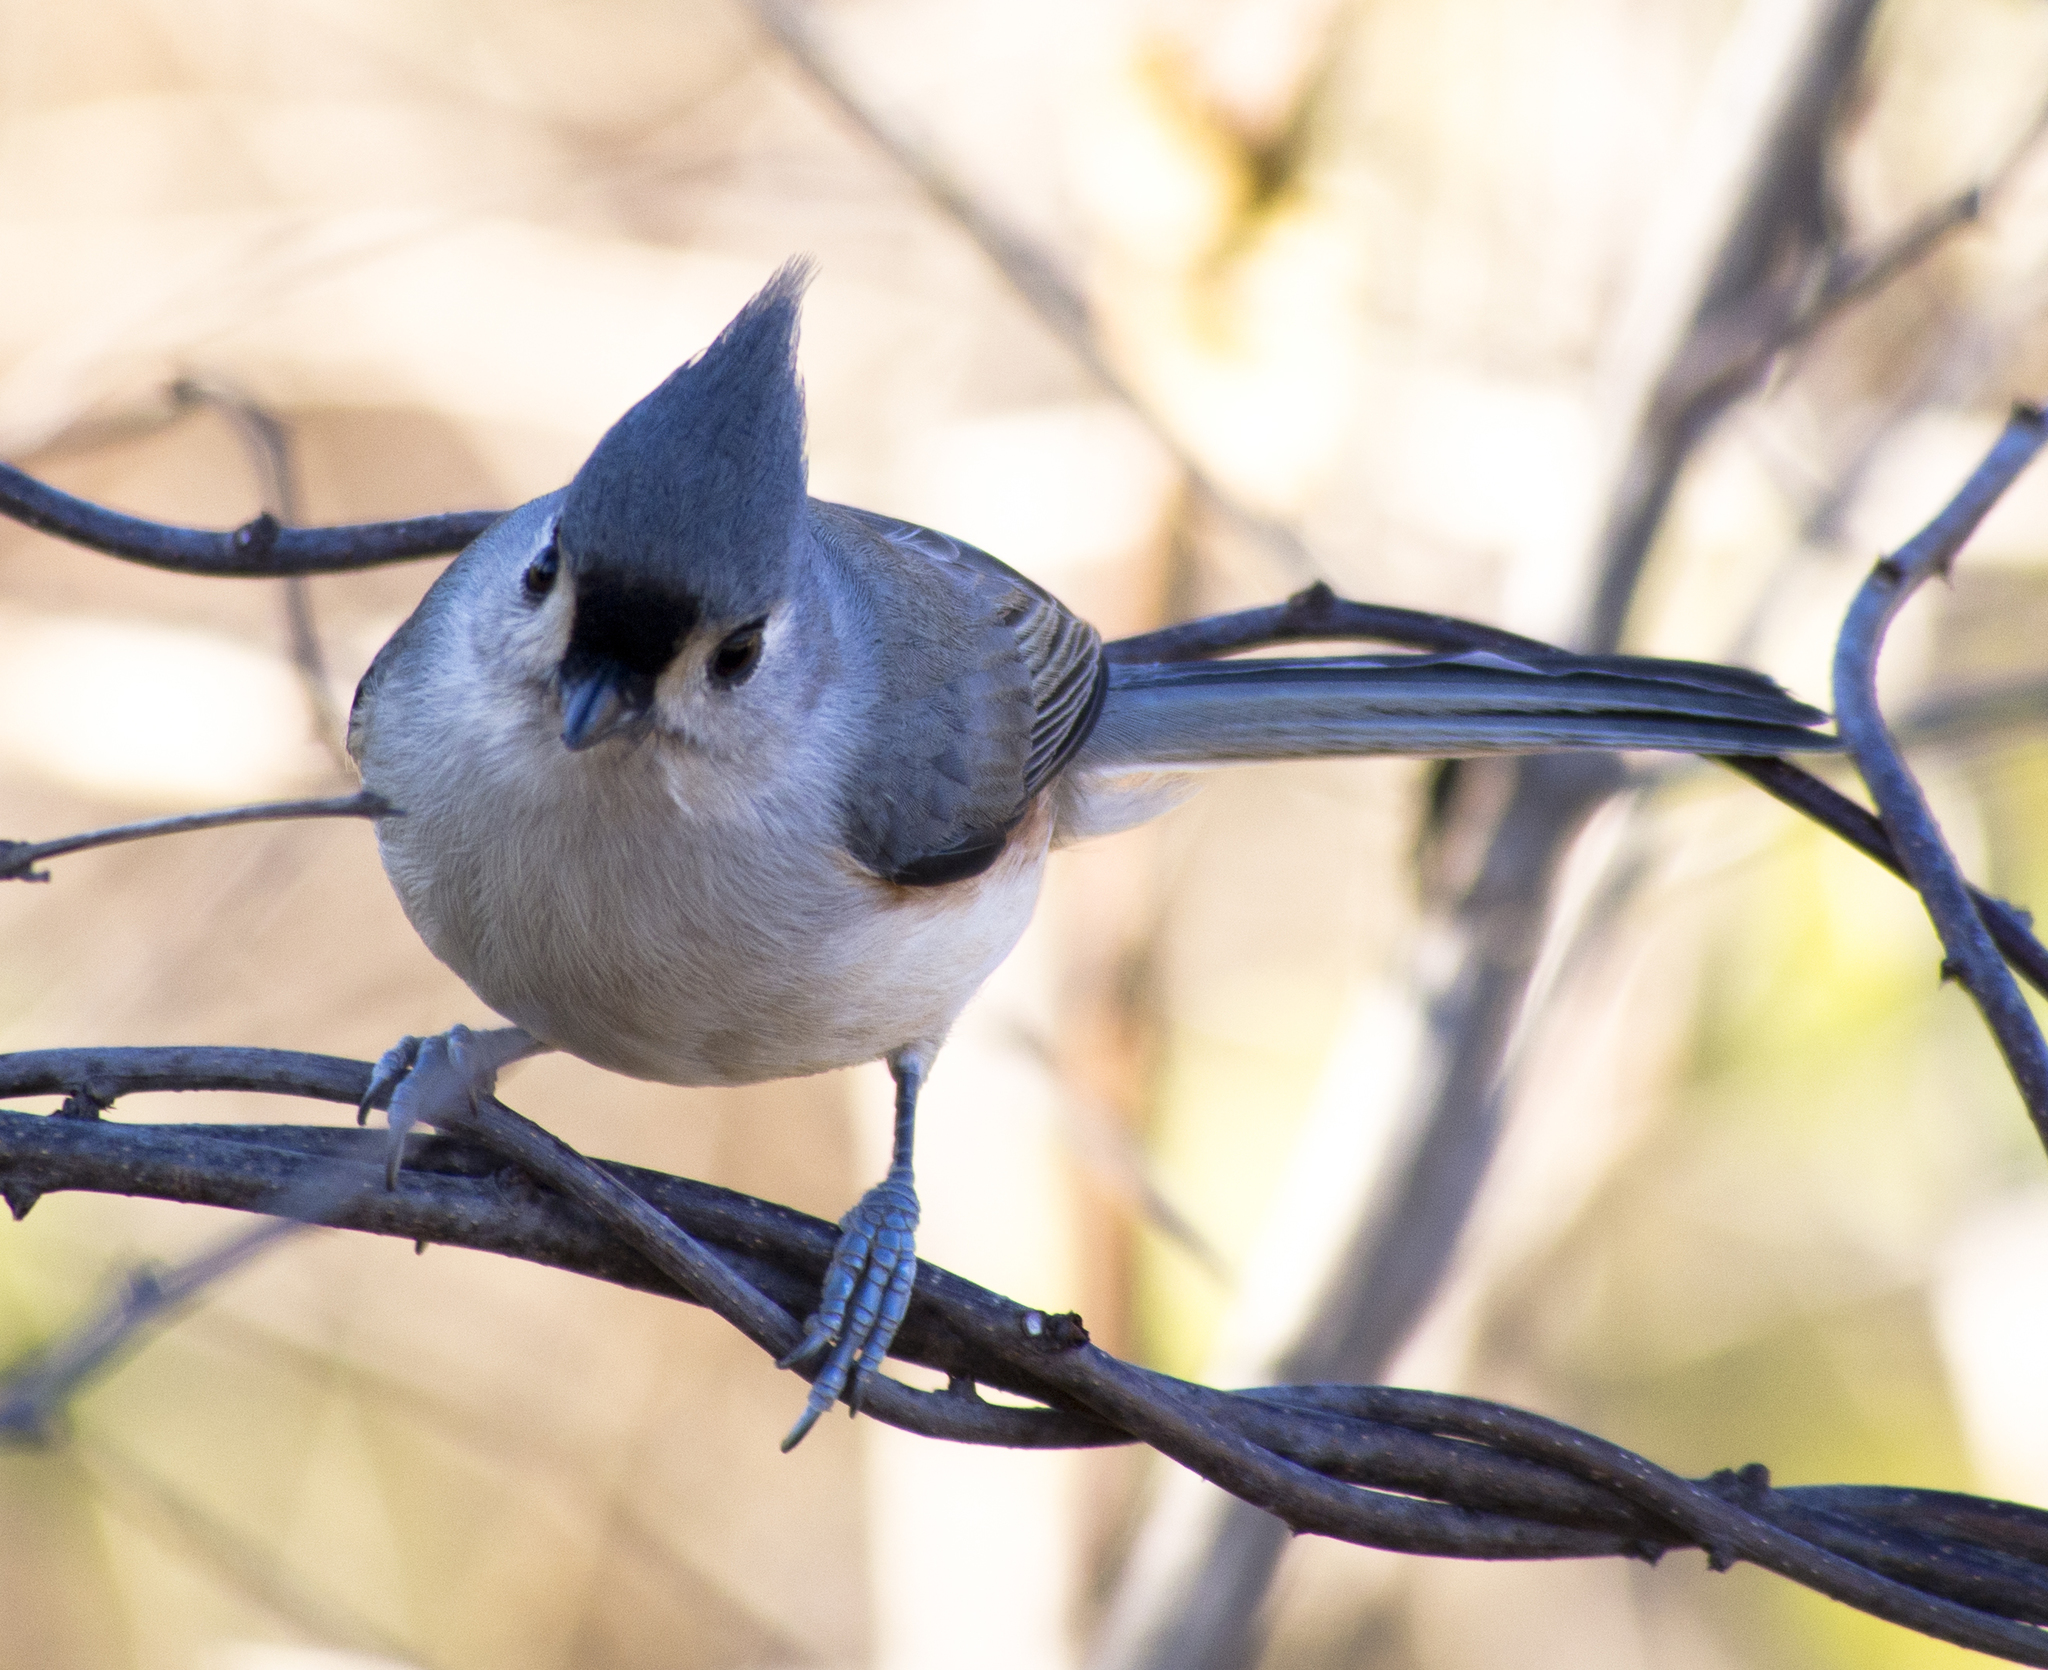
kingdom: Animalia
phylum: Chordata
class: Aves
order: Passeriformes
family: Paridae
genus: Baeolophus
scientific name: Baeolophus bicolor
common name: Tufted titmouse
